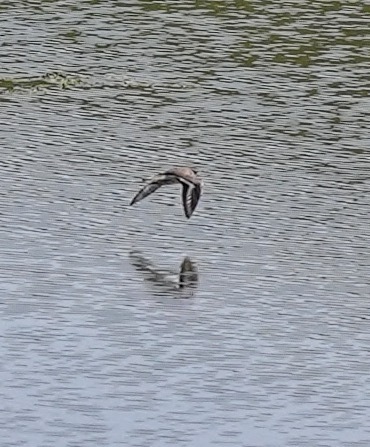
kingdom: Animalia
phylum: Chordata
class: Aves
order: Charadriiformes
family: Charadriidae
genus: Charadrius
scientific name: Charadrius vociferus
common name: Killdeer
